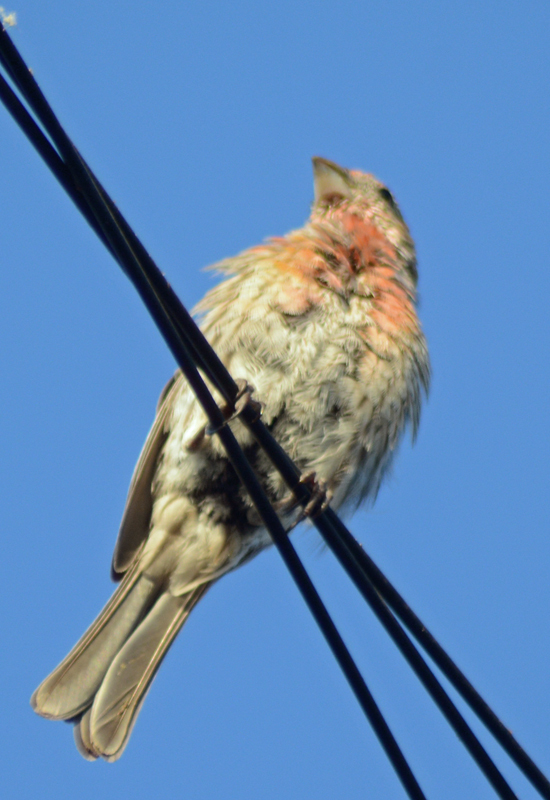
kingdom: Animalia
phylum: Chordata
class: Aves
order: Passeriformes
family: Fringillidae
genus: Haemorhous
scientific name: Haemorhous mexicanus
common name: House finch
